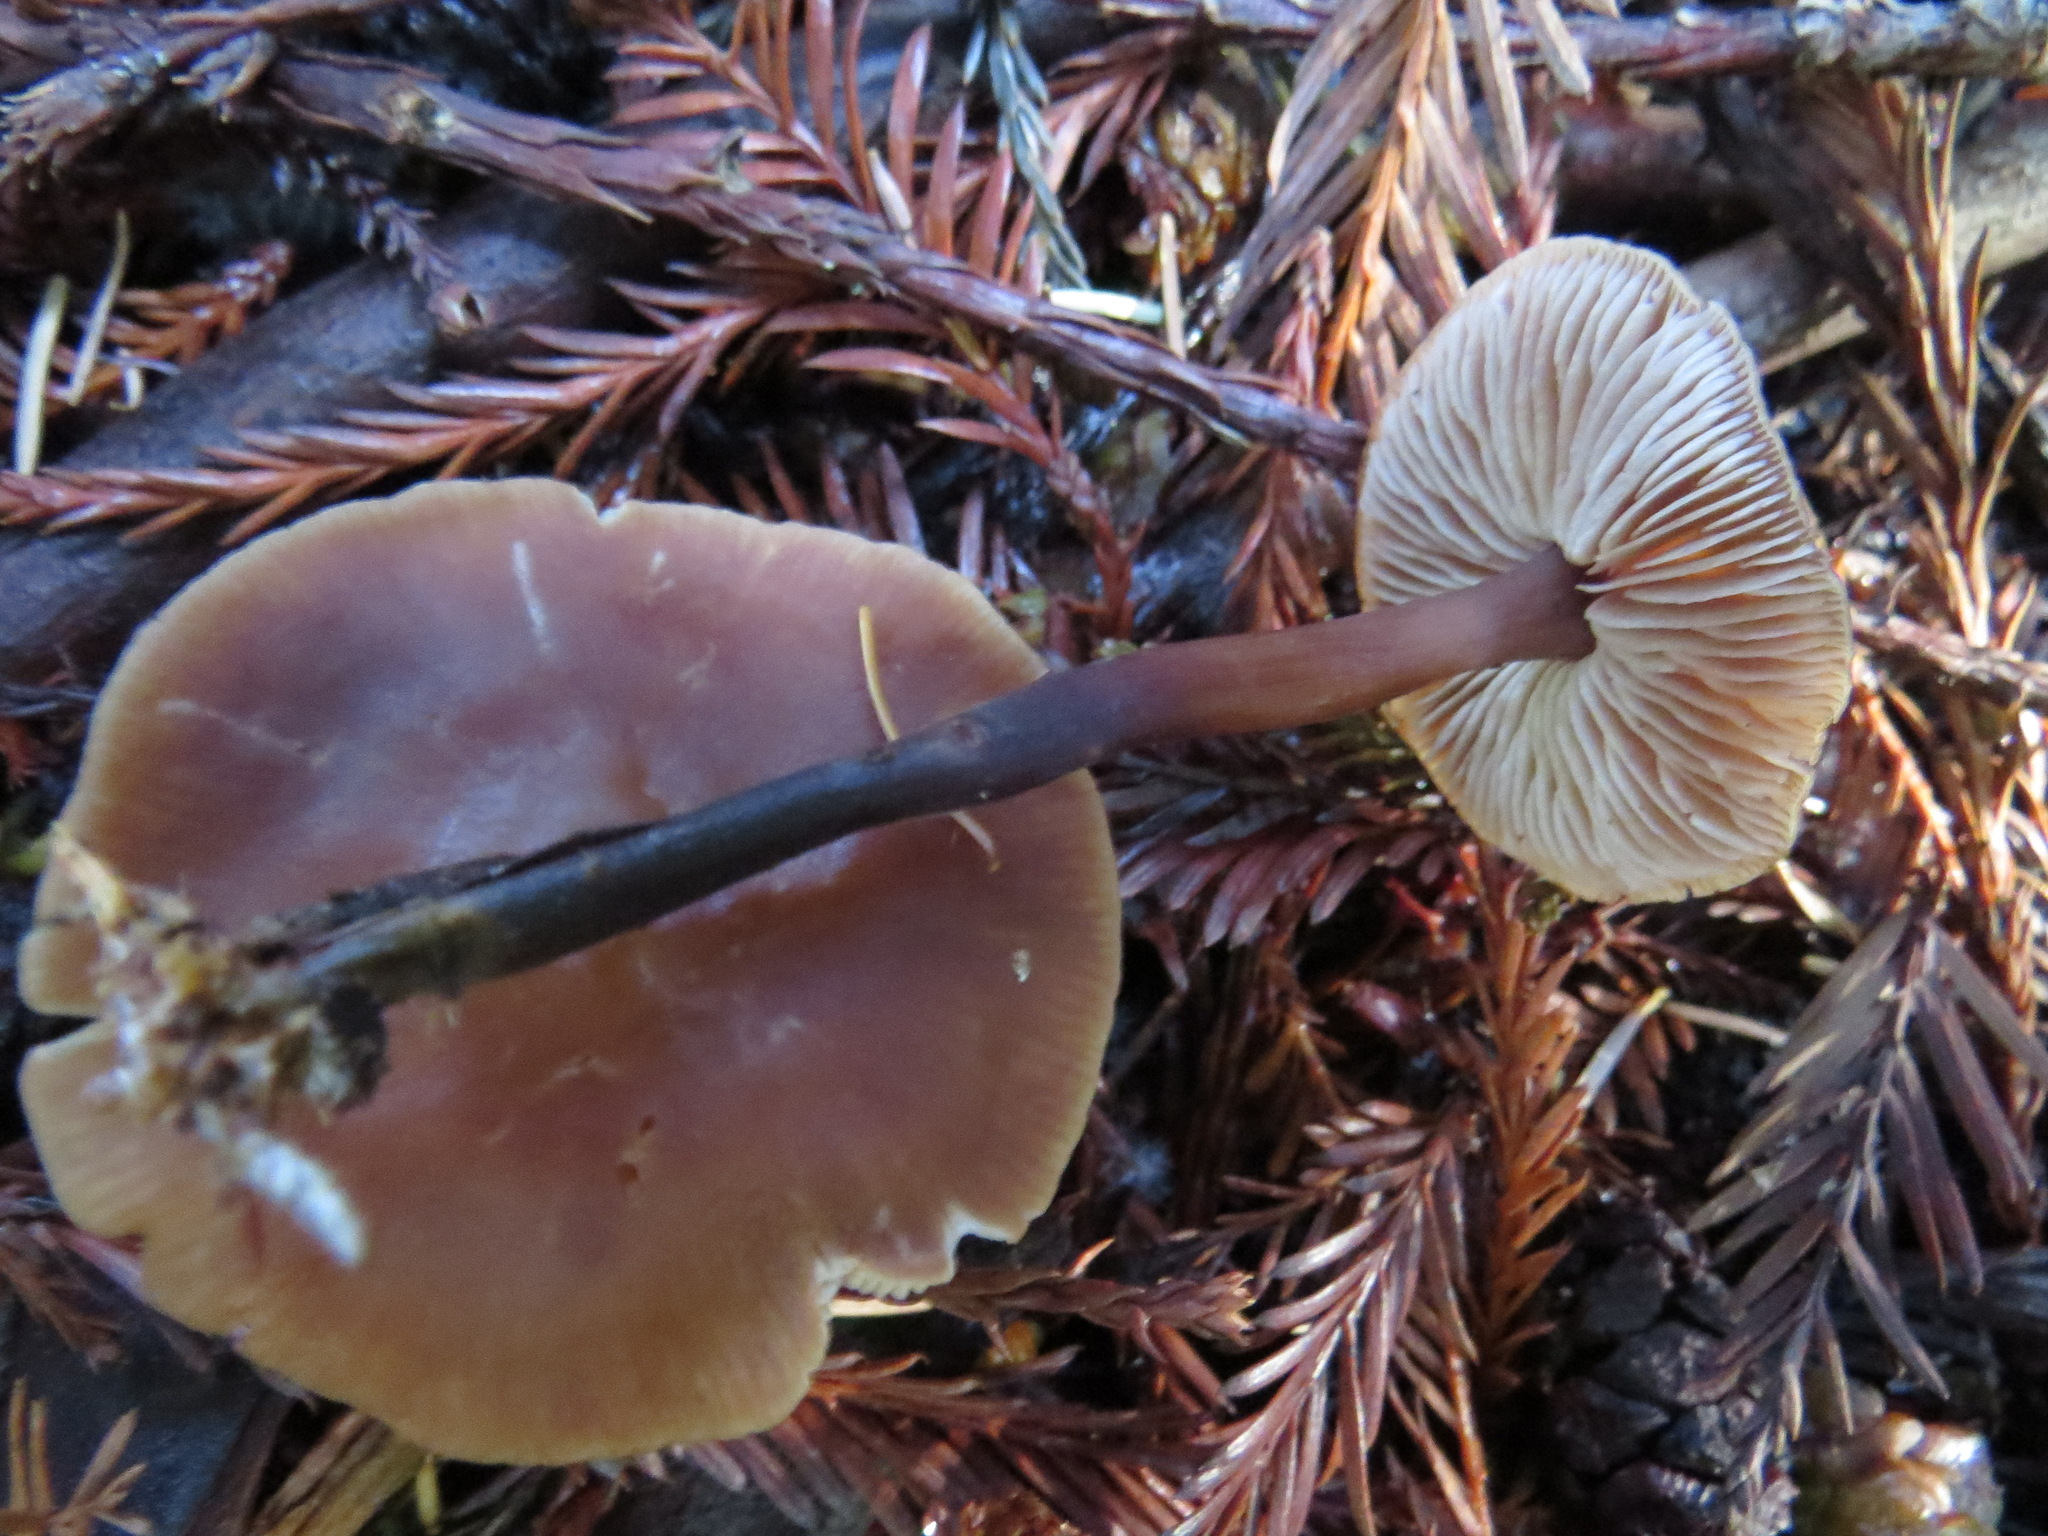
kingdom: Fungi
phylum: Basidiomycota
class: Agaricomycetes
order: Agaricales
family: Omphalotaceae
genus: Gymnopus
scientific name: Gymnopus brassicolens
